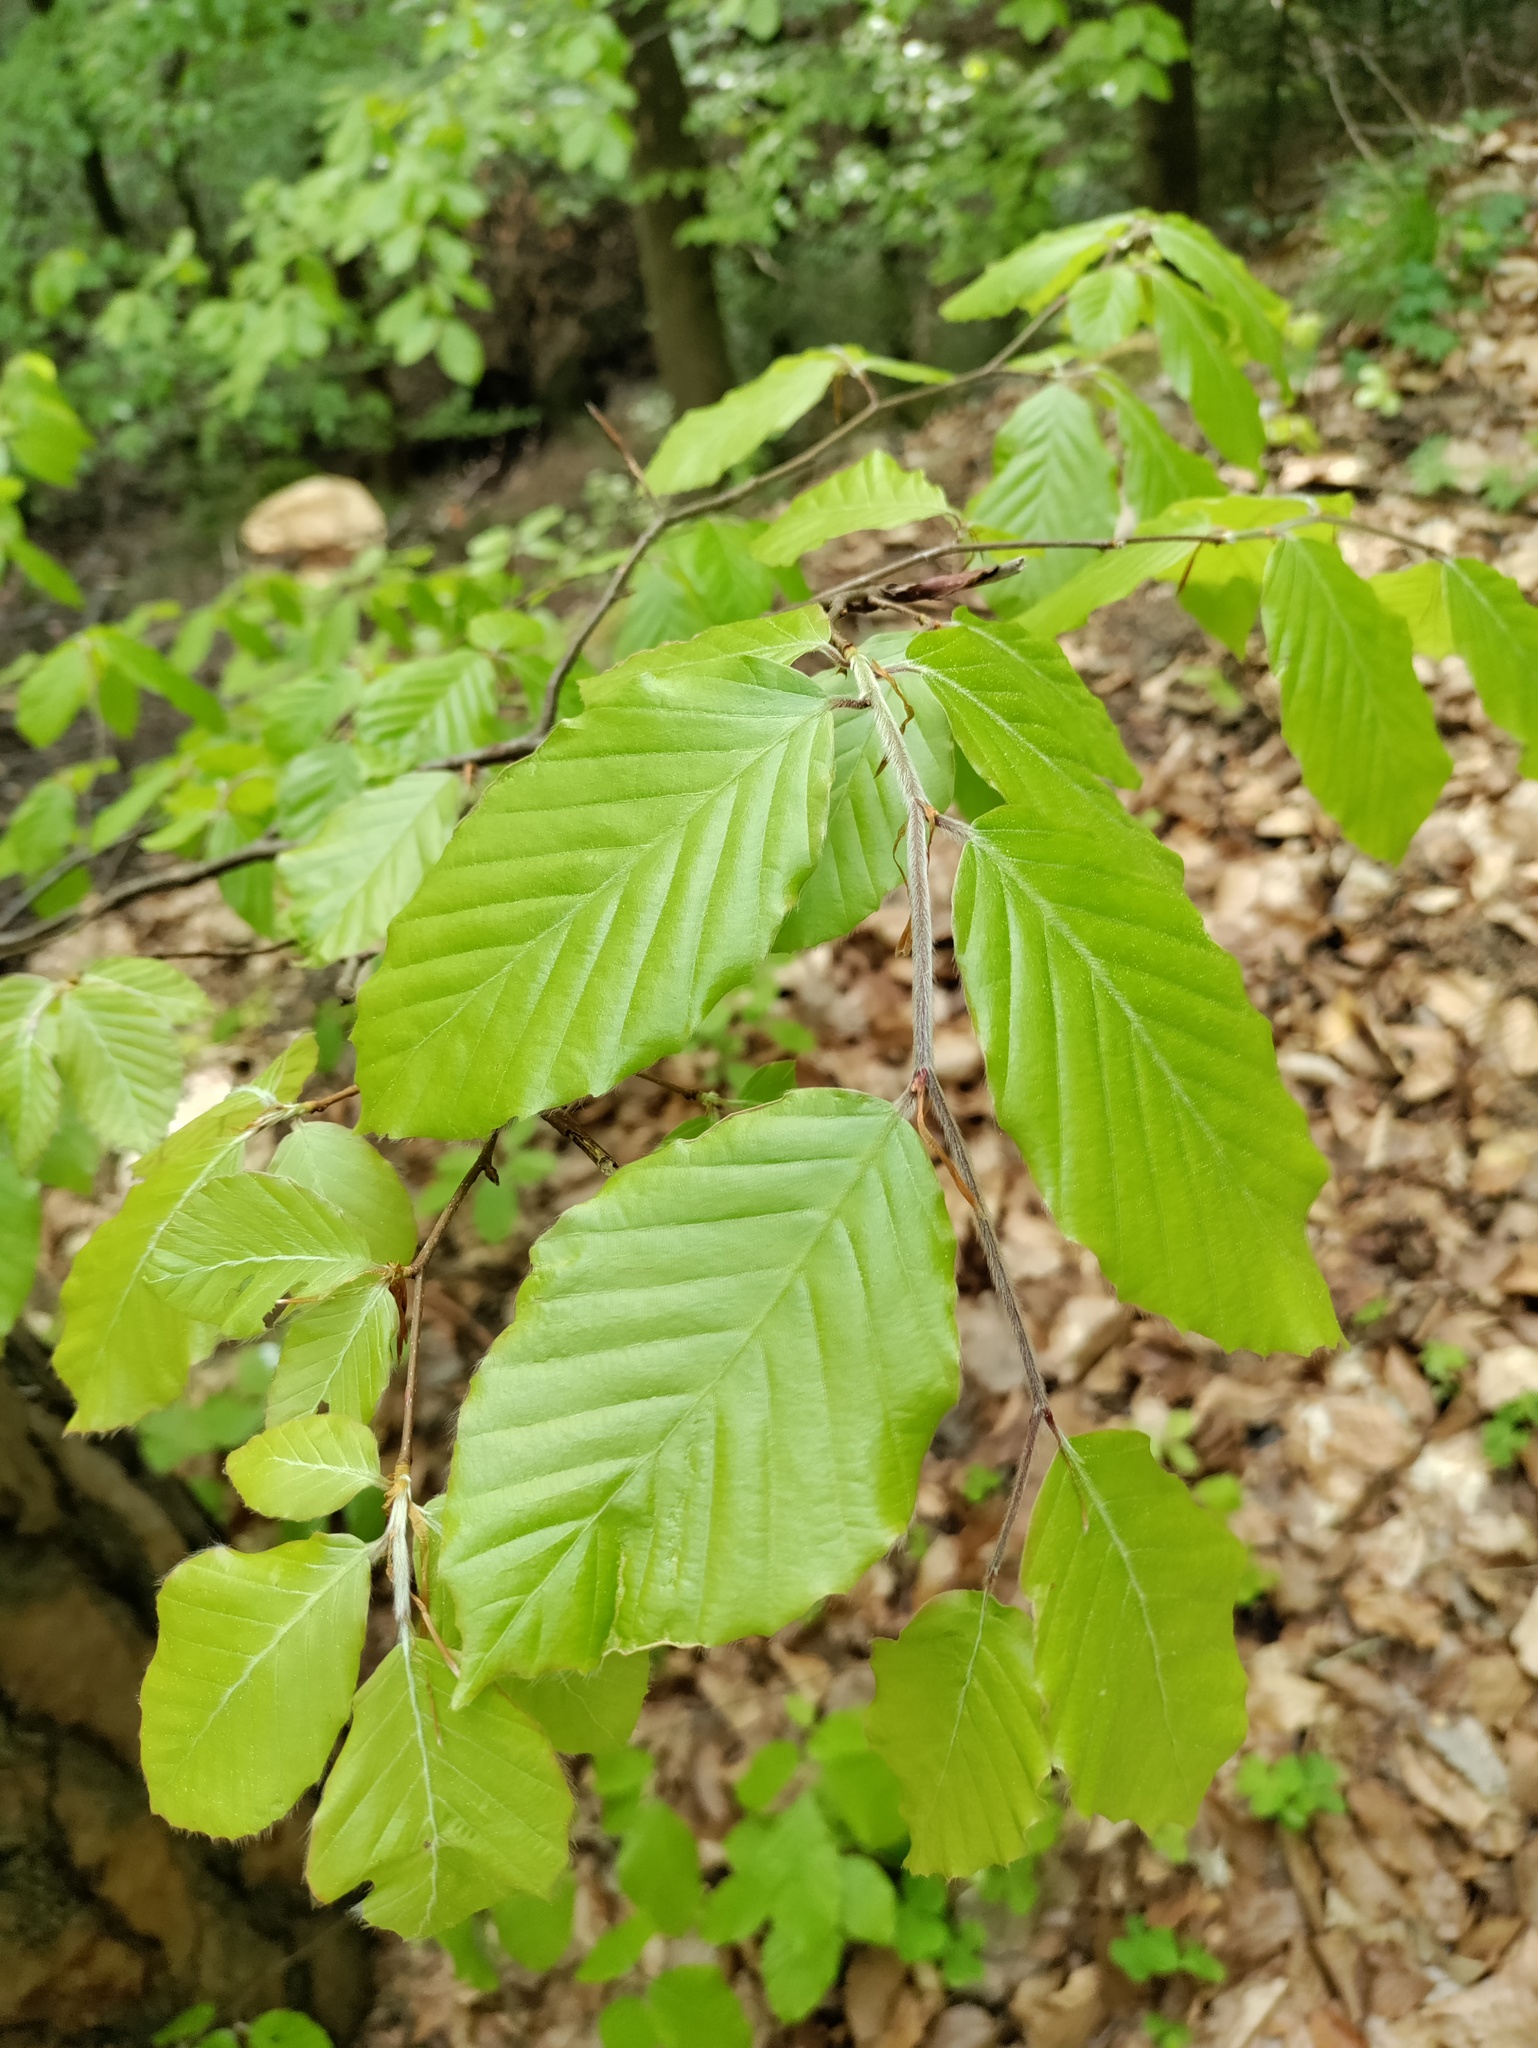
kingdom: Plantae
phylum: Tracheophyta
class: Magnoliopsida
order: Fagales
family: Fagaceae
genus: Fagus
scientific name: Fagus sylvatica
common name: Beech
